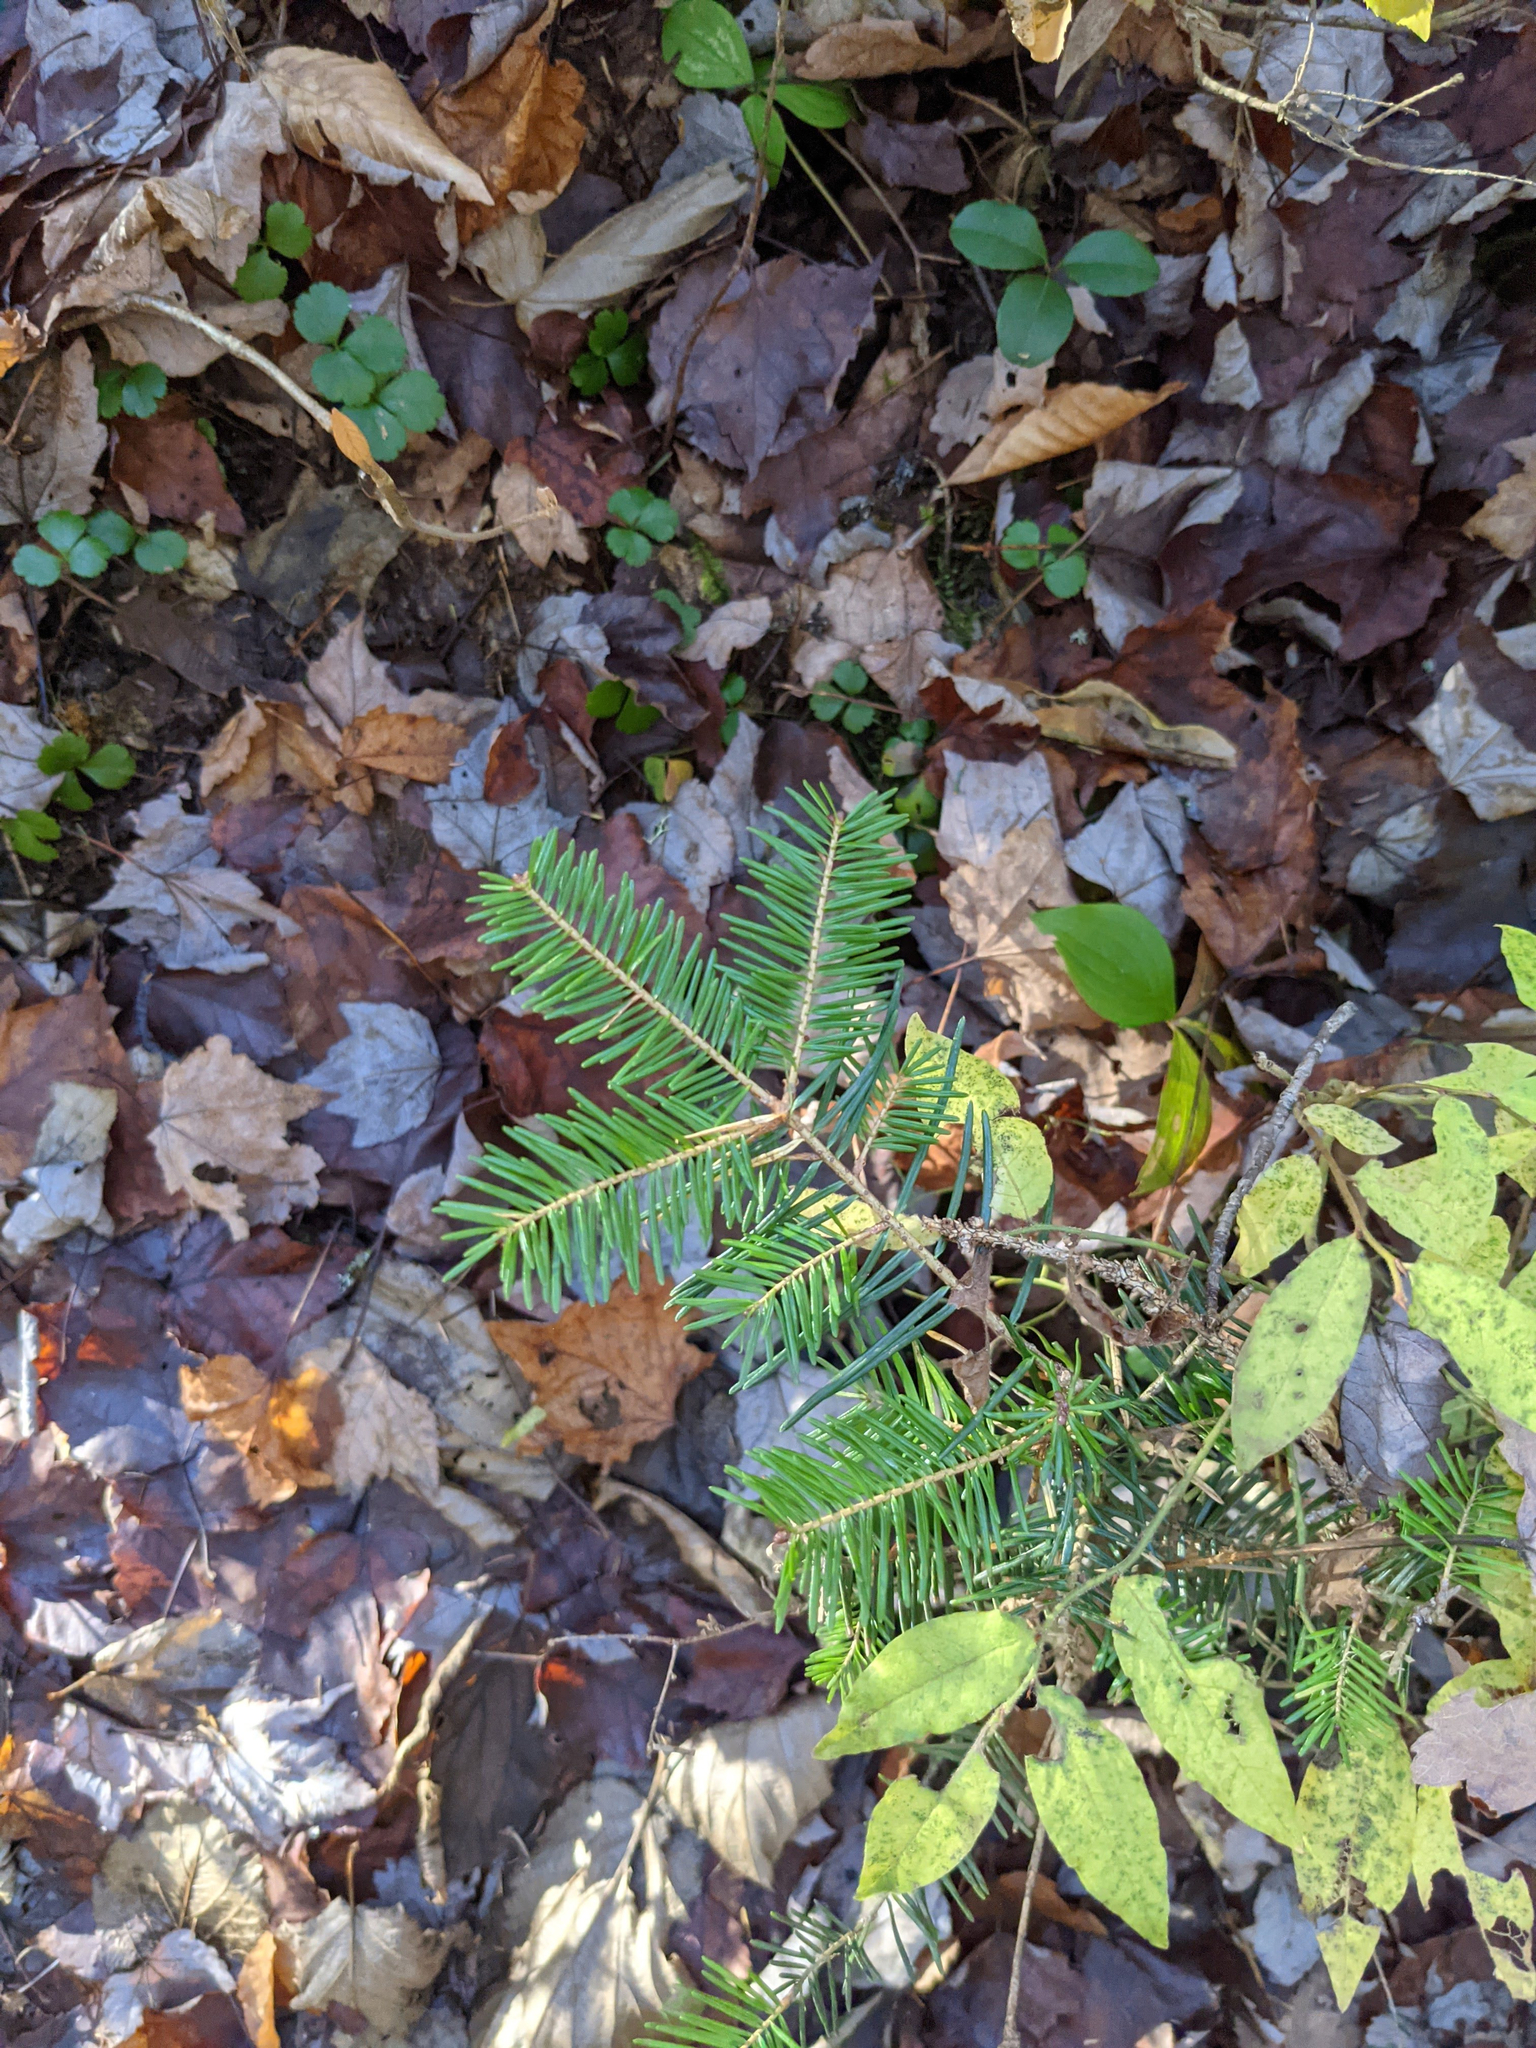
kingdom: Plantae
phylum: Tracheophyta
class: Pinopsida
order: Pinales
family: Pinaceae
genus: Abies
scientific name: Abies balsamea
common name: Balsam fir
